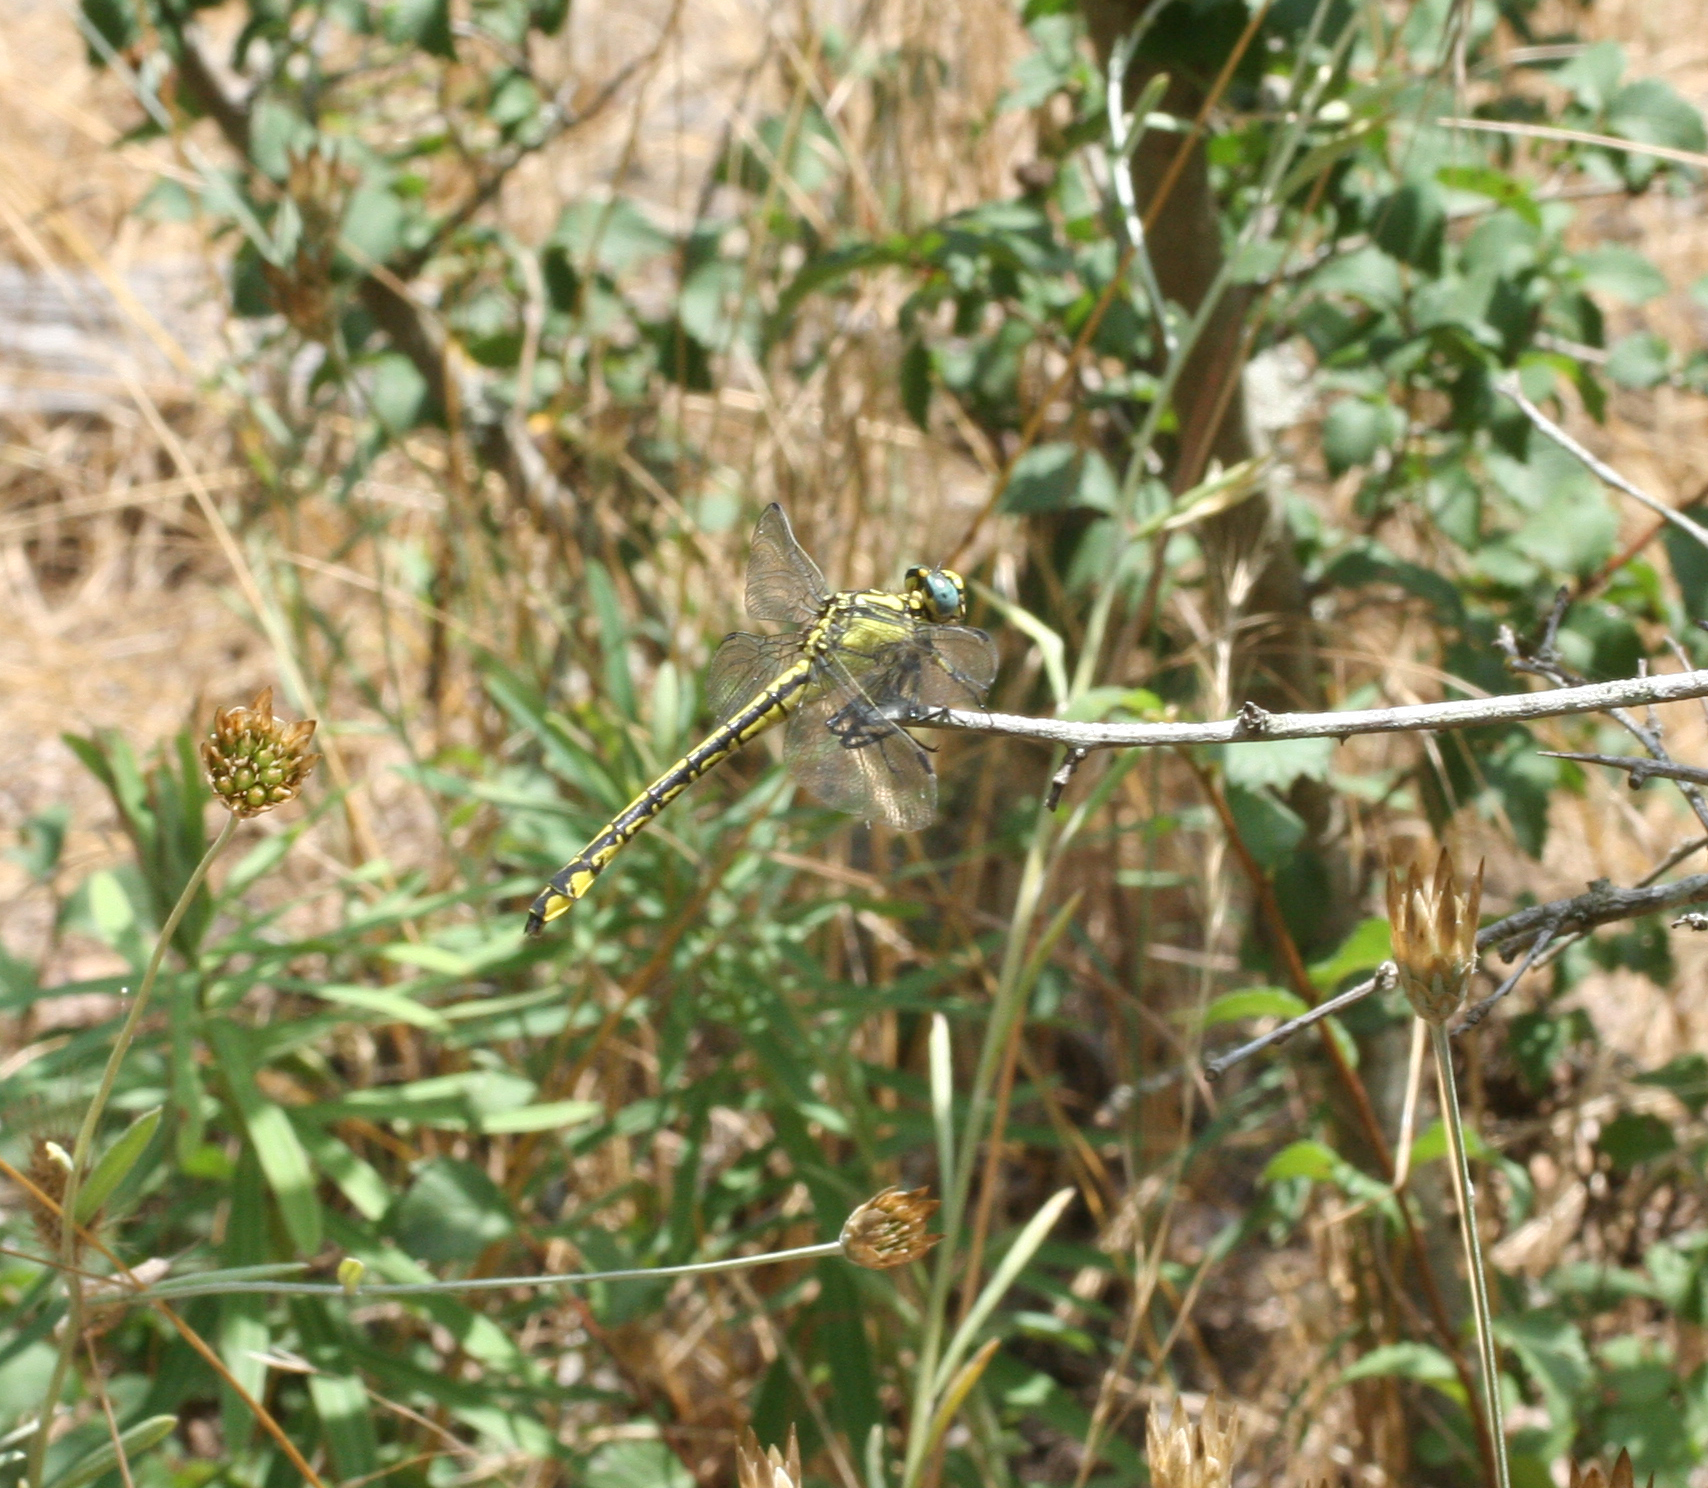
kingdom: Animalia
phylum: Arthropoda
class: Insecta
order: Odonata
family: Gomphidae
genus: Gomphus
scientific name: Gomphus schneiderii
